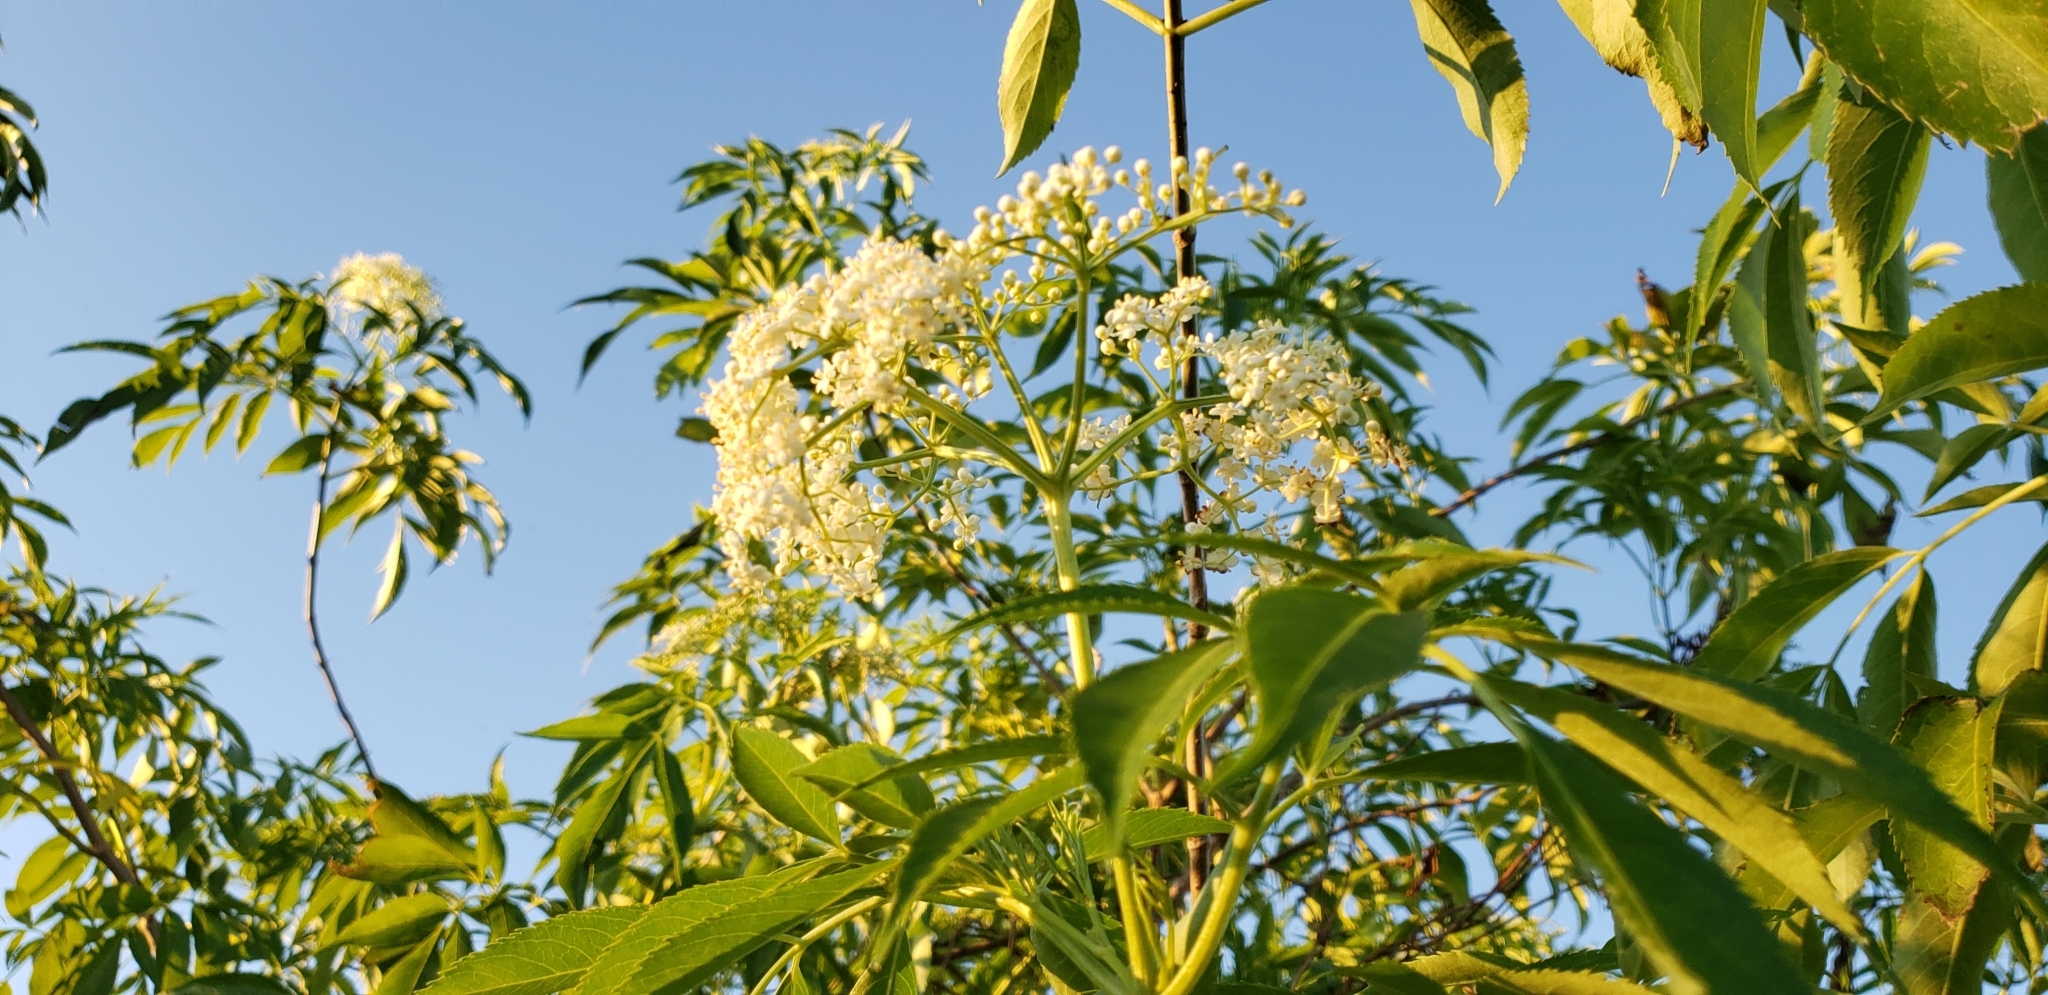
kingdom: Plantae
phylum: Tracheophyta
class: Magnoliopsida
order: Dipsacales
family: Viburnaceae
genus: Sambucus
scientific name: Sambucus canadensis
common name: American elder
